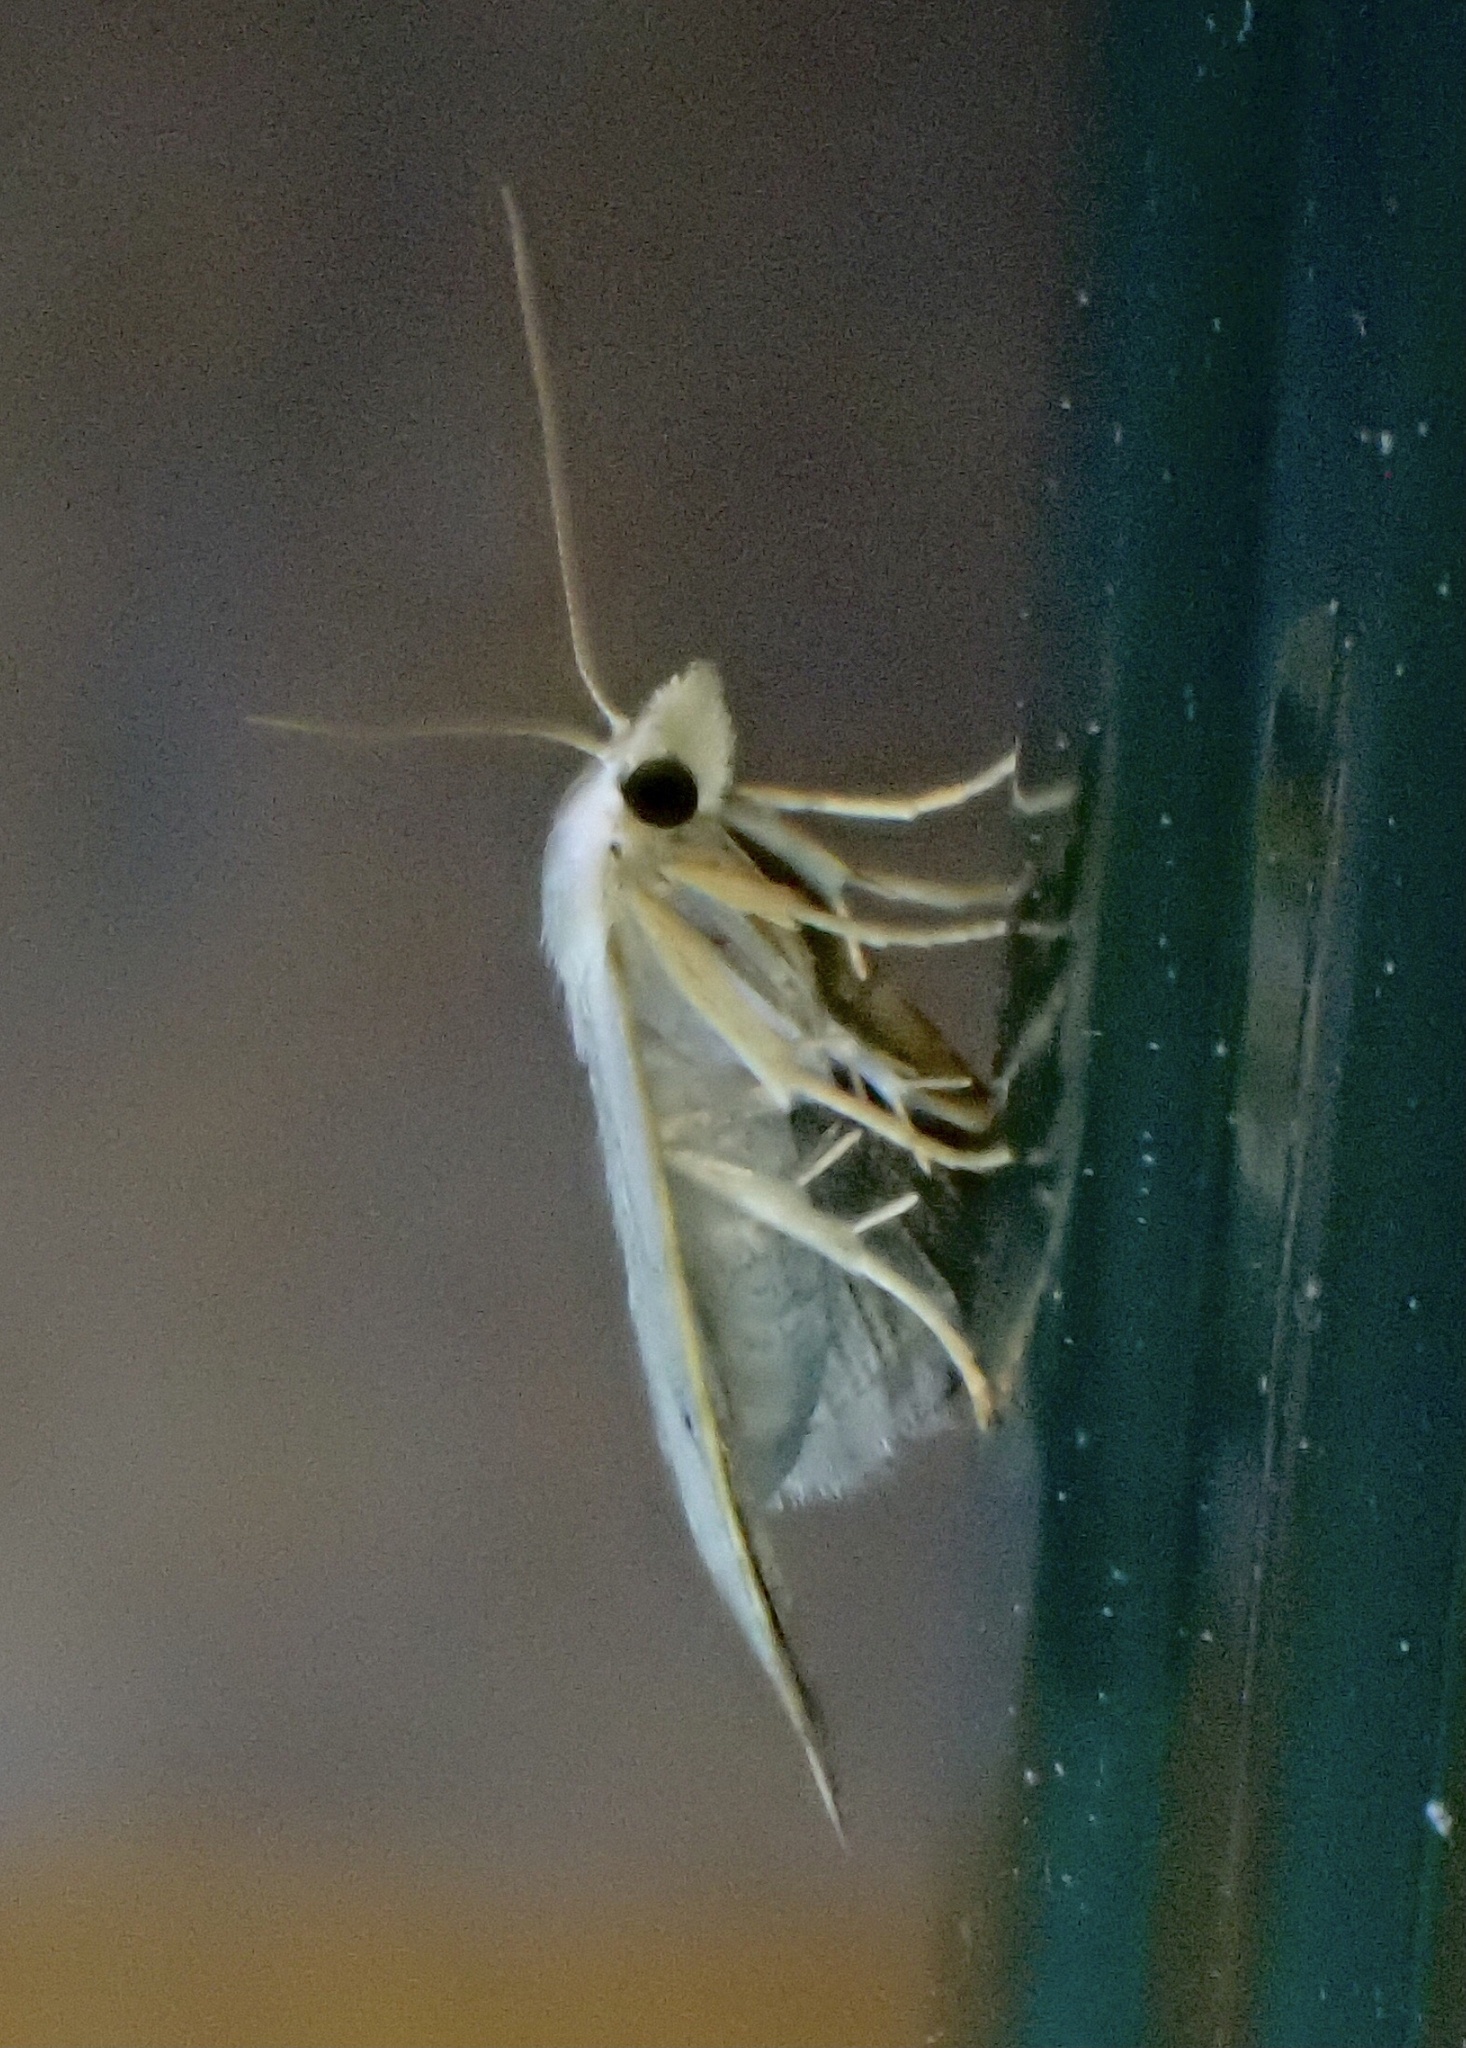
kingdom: Animalia
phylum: Arthropoda
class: Insecta
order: Lepidoptera
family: Erebidae
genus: Rivula
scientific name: Rivula propinqualis
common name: Spotted grass moth
